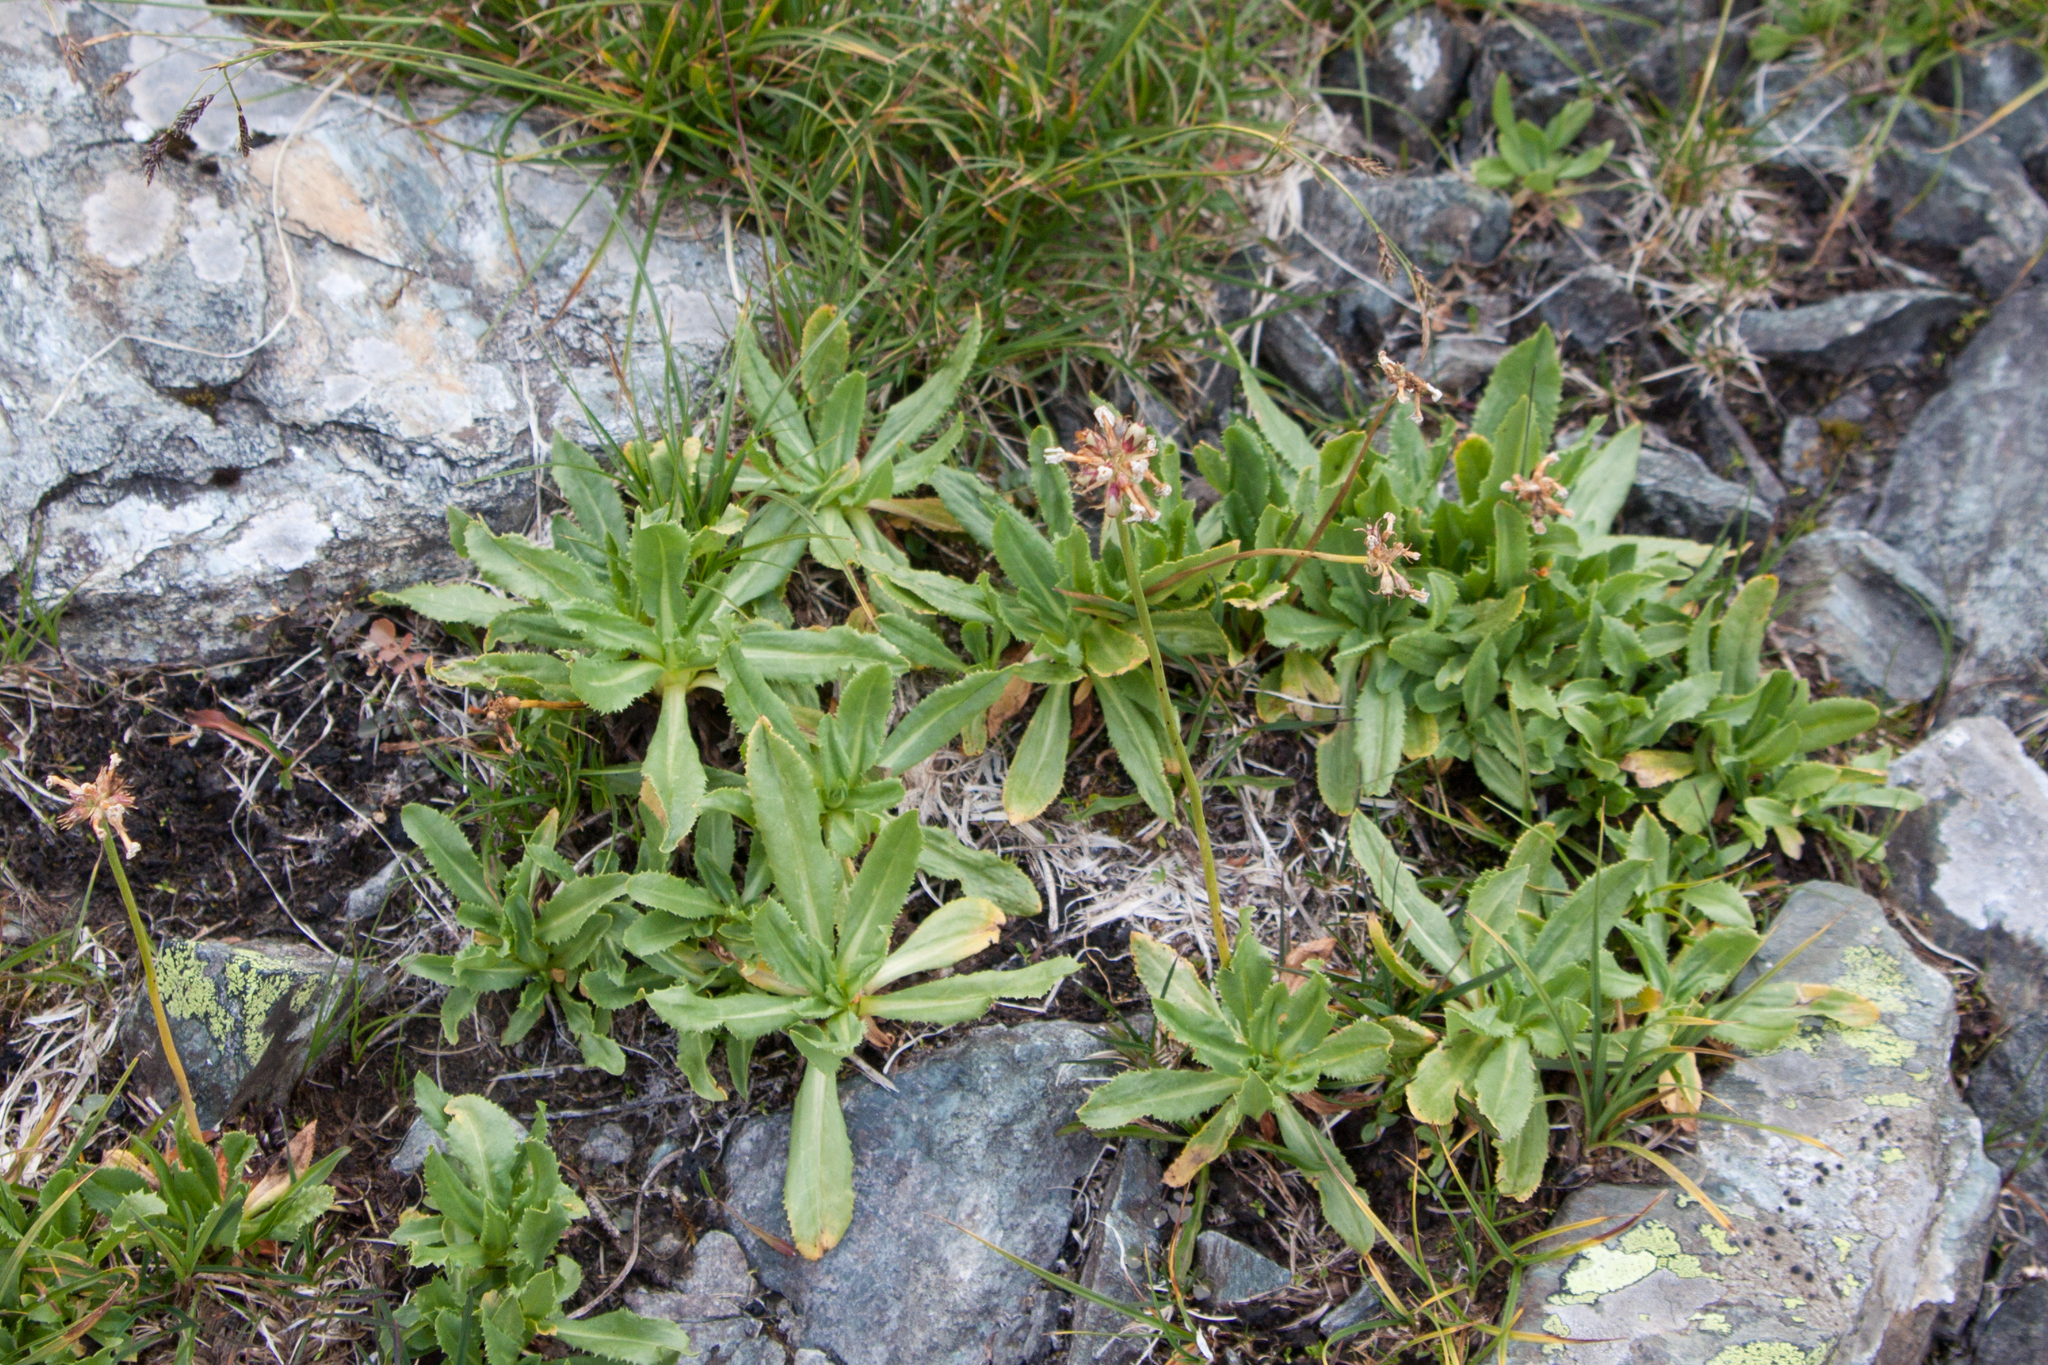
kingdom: Plantae
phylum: Tracheophyta
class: Magnoliopsida
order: Ericales
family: Primulaceae
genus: Primula
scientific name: Primula auriculata
